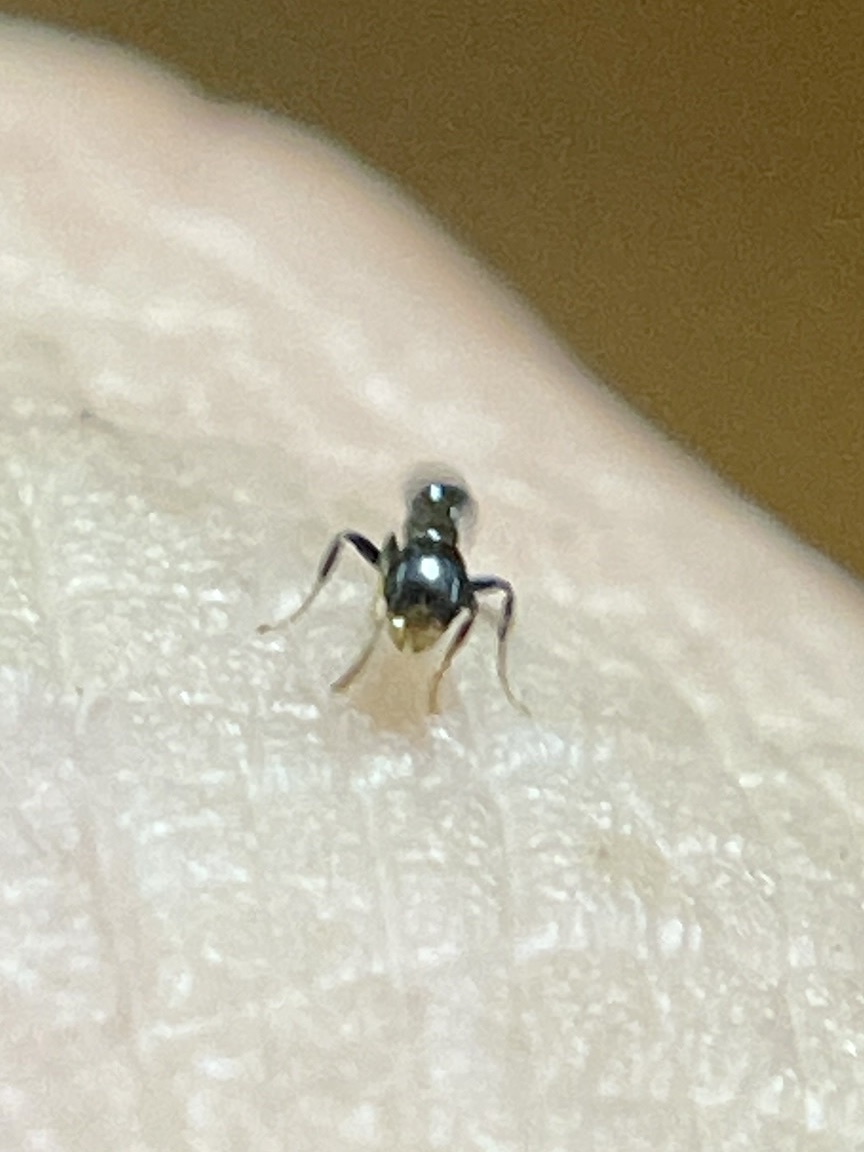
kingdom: Animalia
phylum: Arthropoda
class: Insecta
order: Hymenoptera
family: Formicidae
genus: Pseudomyrmex
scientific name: Pseudomyrmex ejectus
